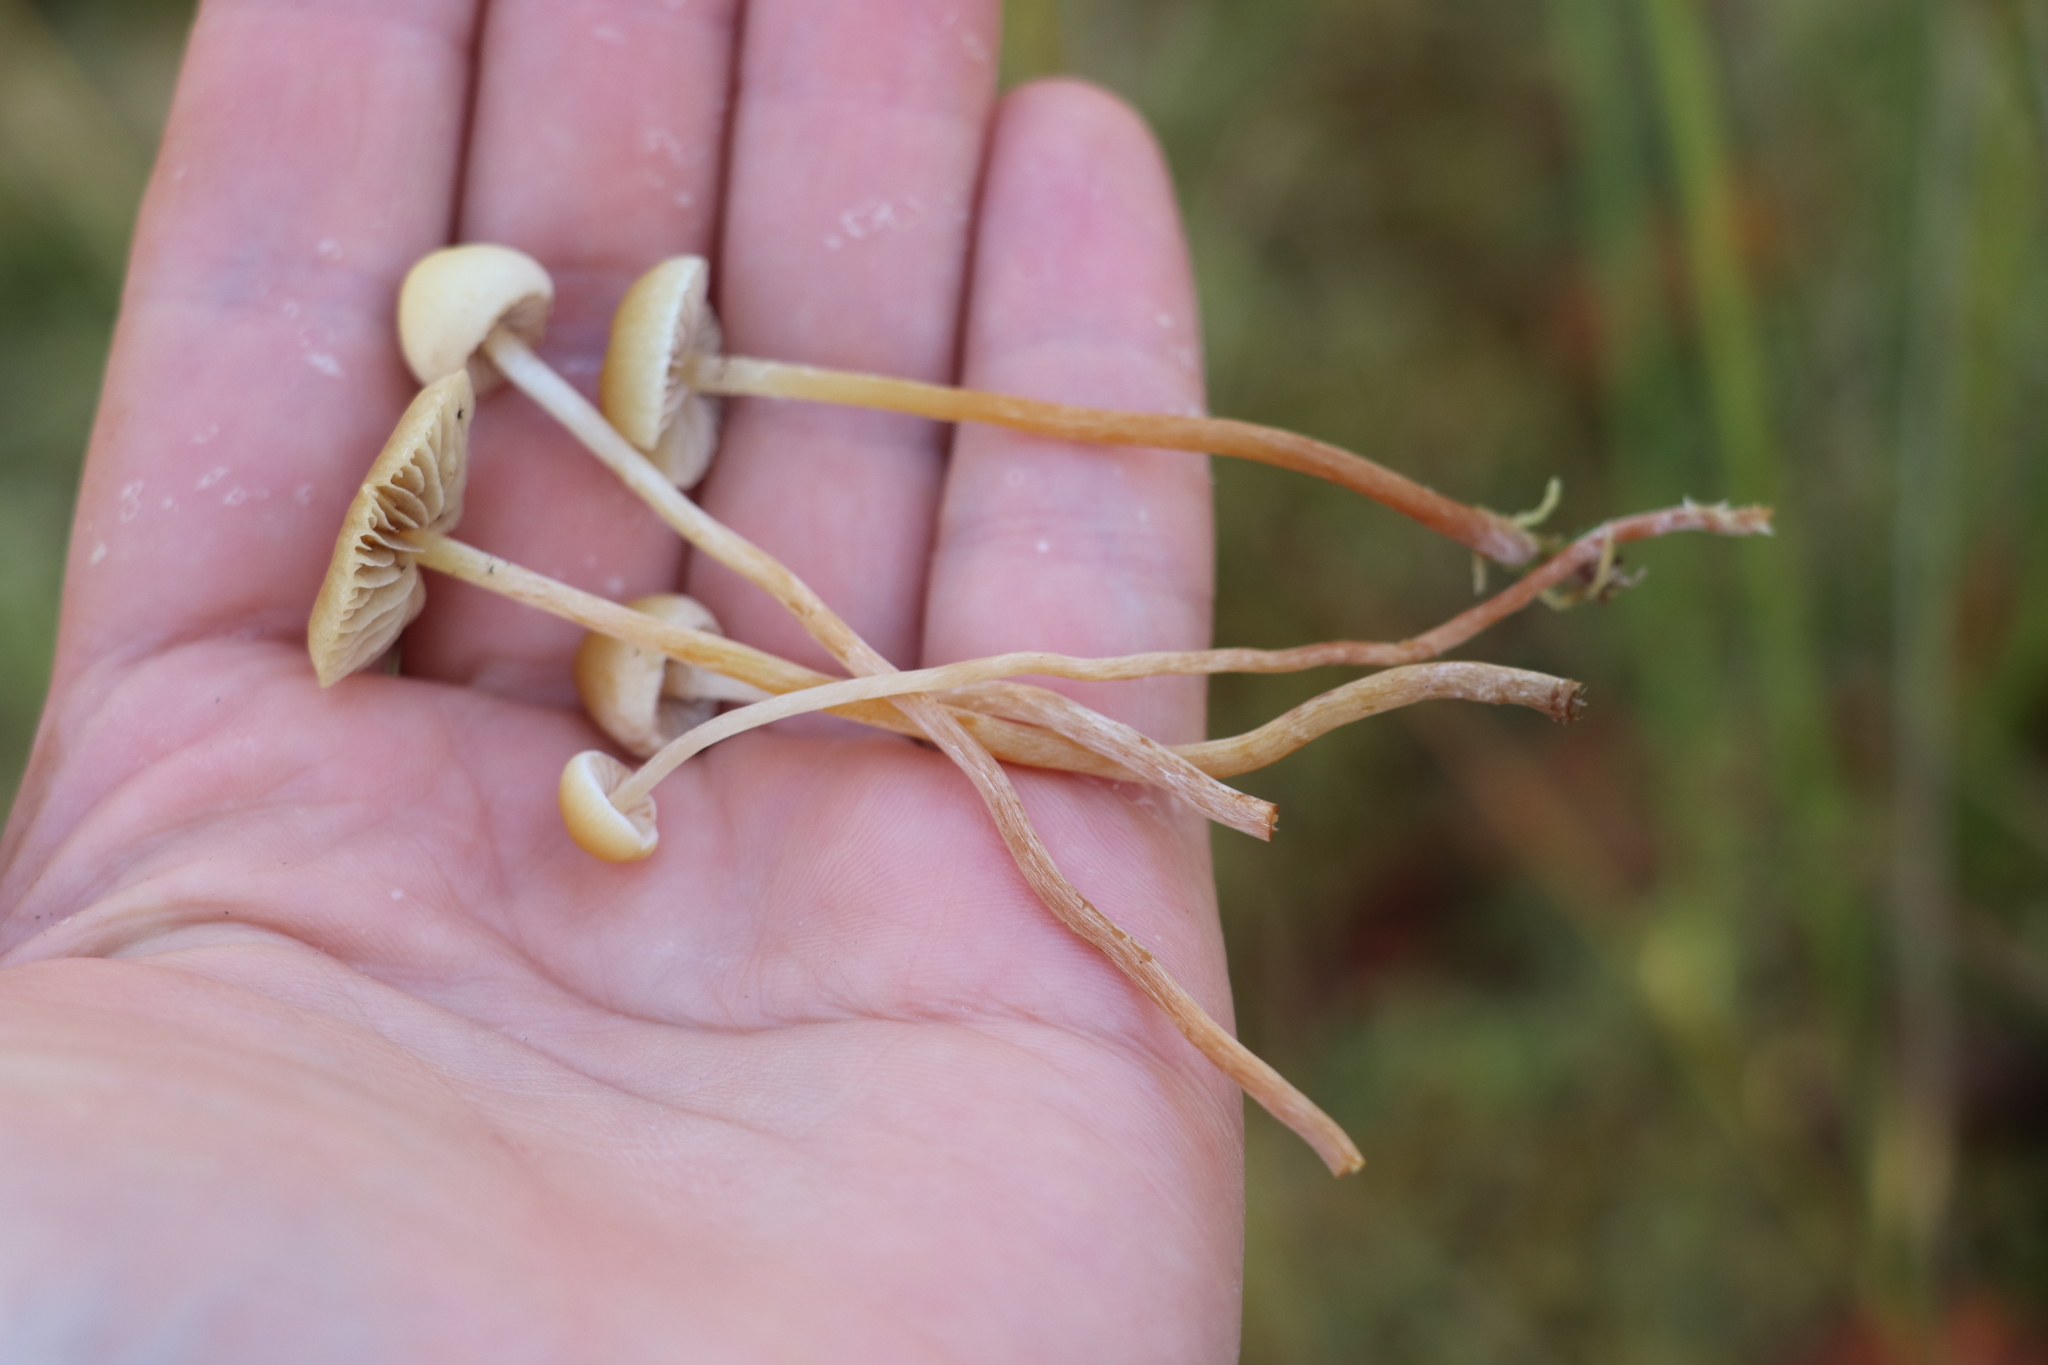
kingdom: Fungi
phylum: Basidiomycota
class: Agaricomycetes
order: Agaricales
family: Strophariaceae
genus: Hypholoma
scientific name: Hypholoma elongatum
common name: Sphagnum brownie
